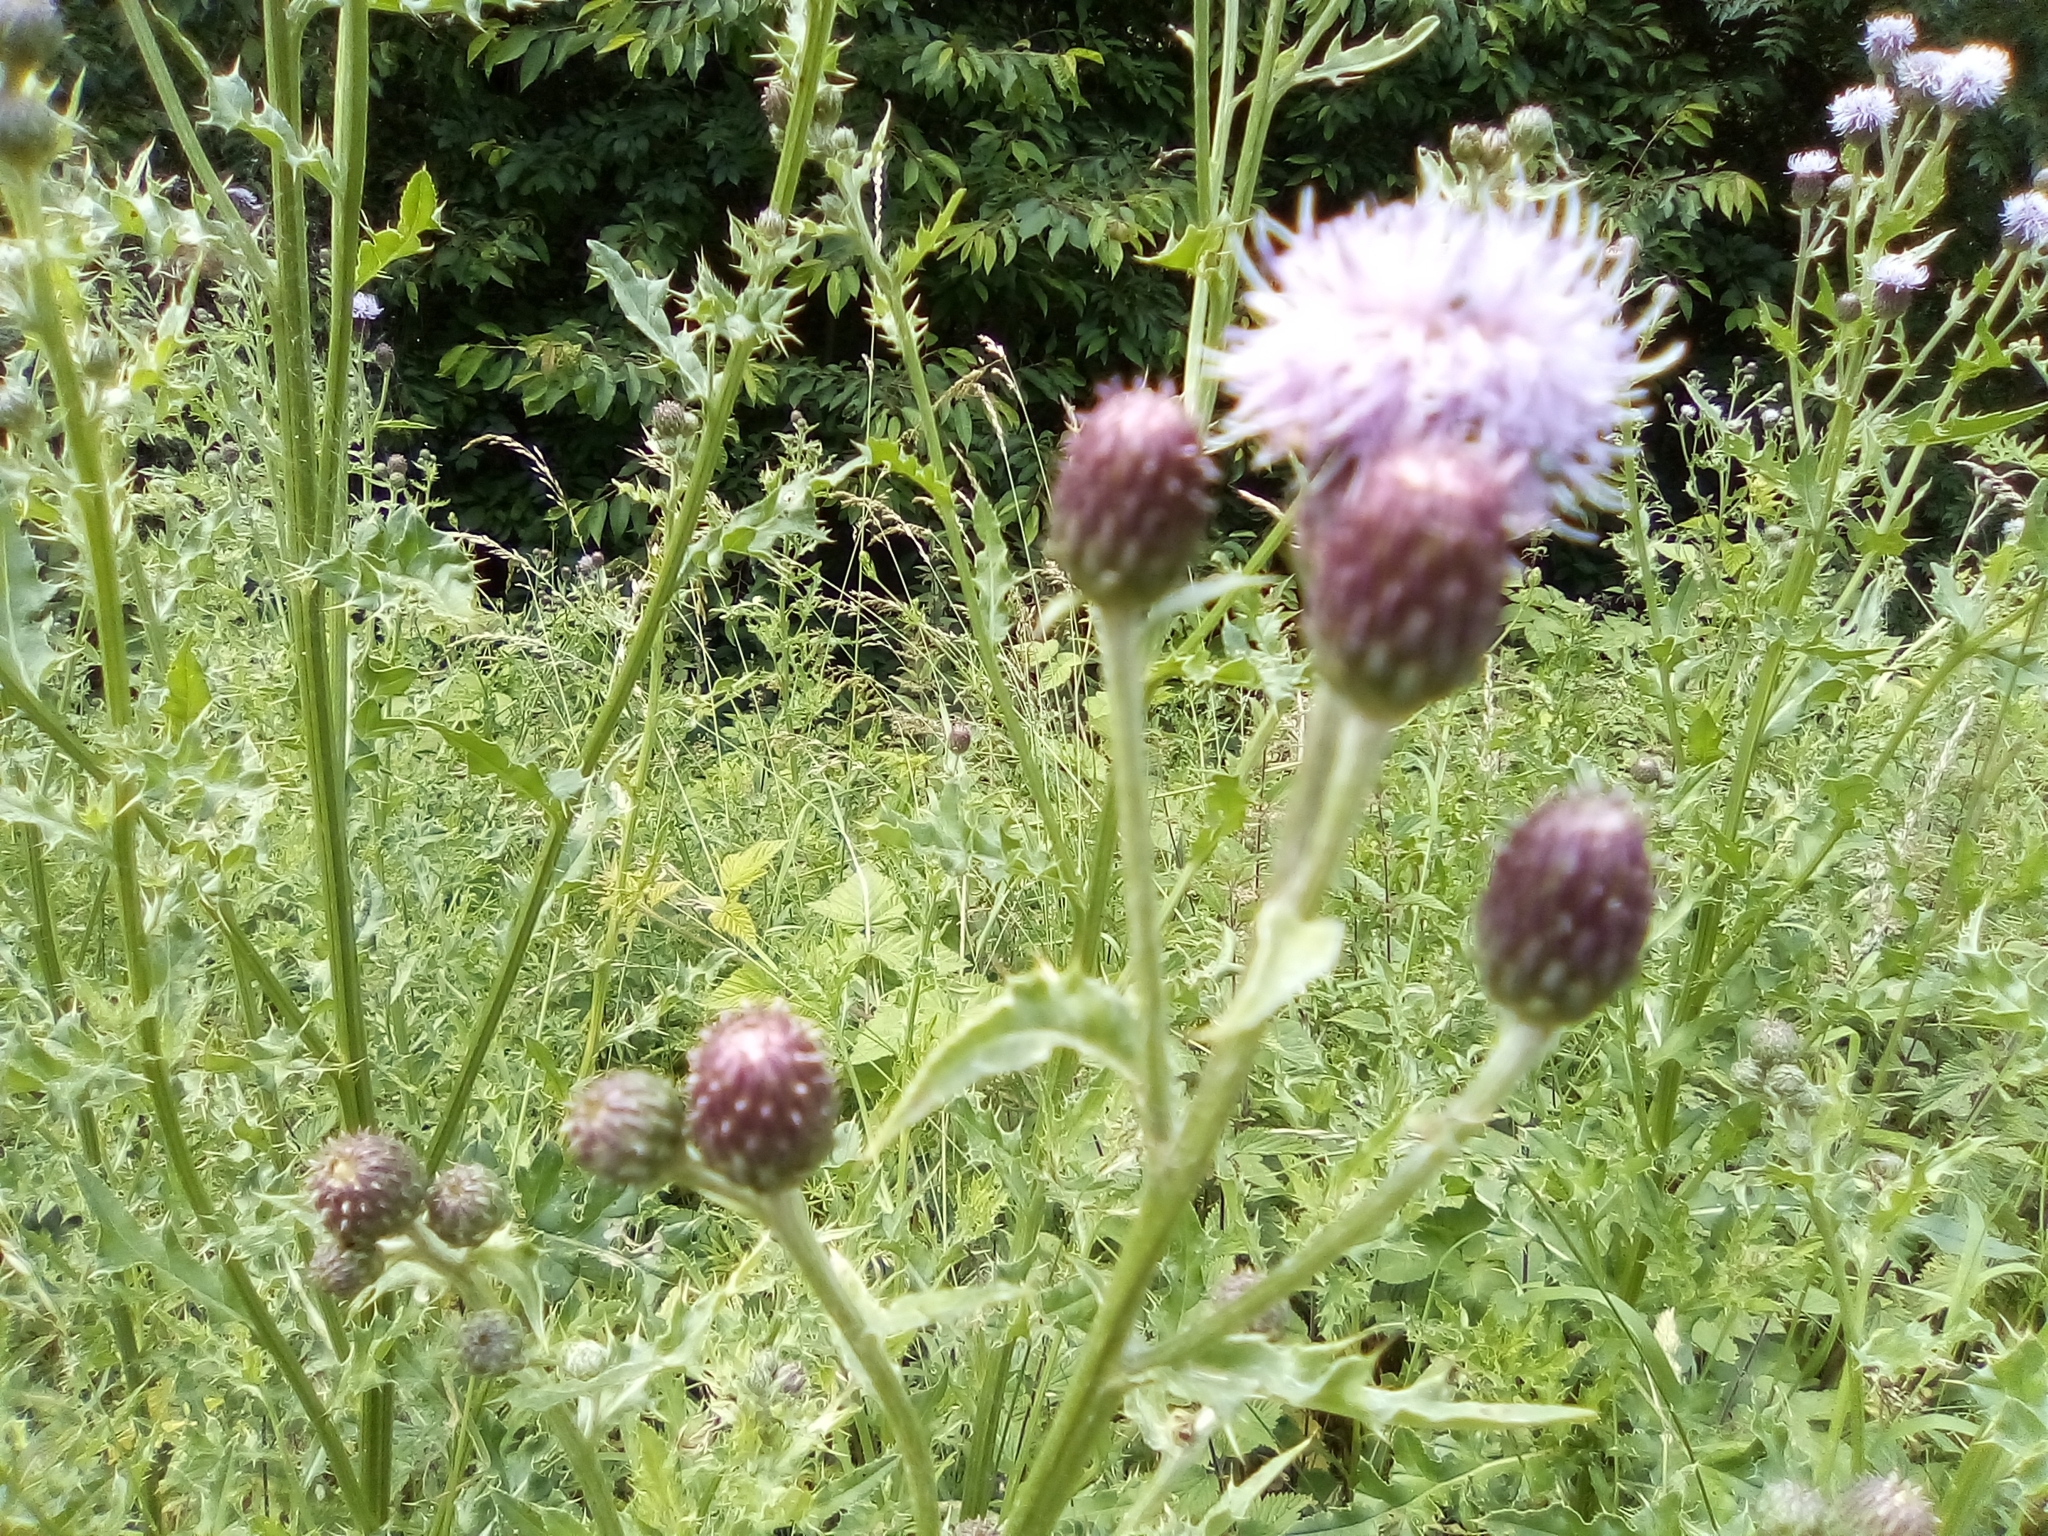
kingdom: Plantae
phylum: Tracheophyta
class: Magnoliopsida
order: Asterales
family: Asteraceae
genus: Cirsium
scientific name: Cirsium arvense
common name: Creeping thistle
